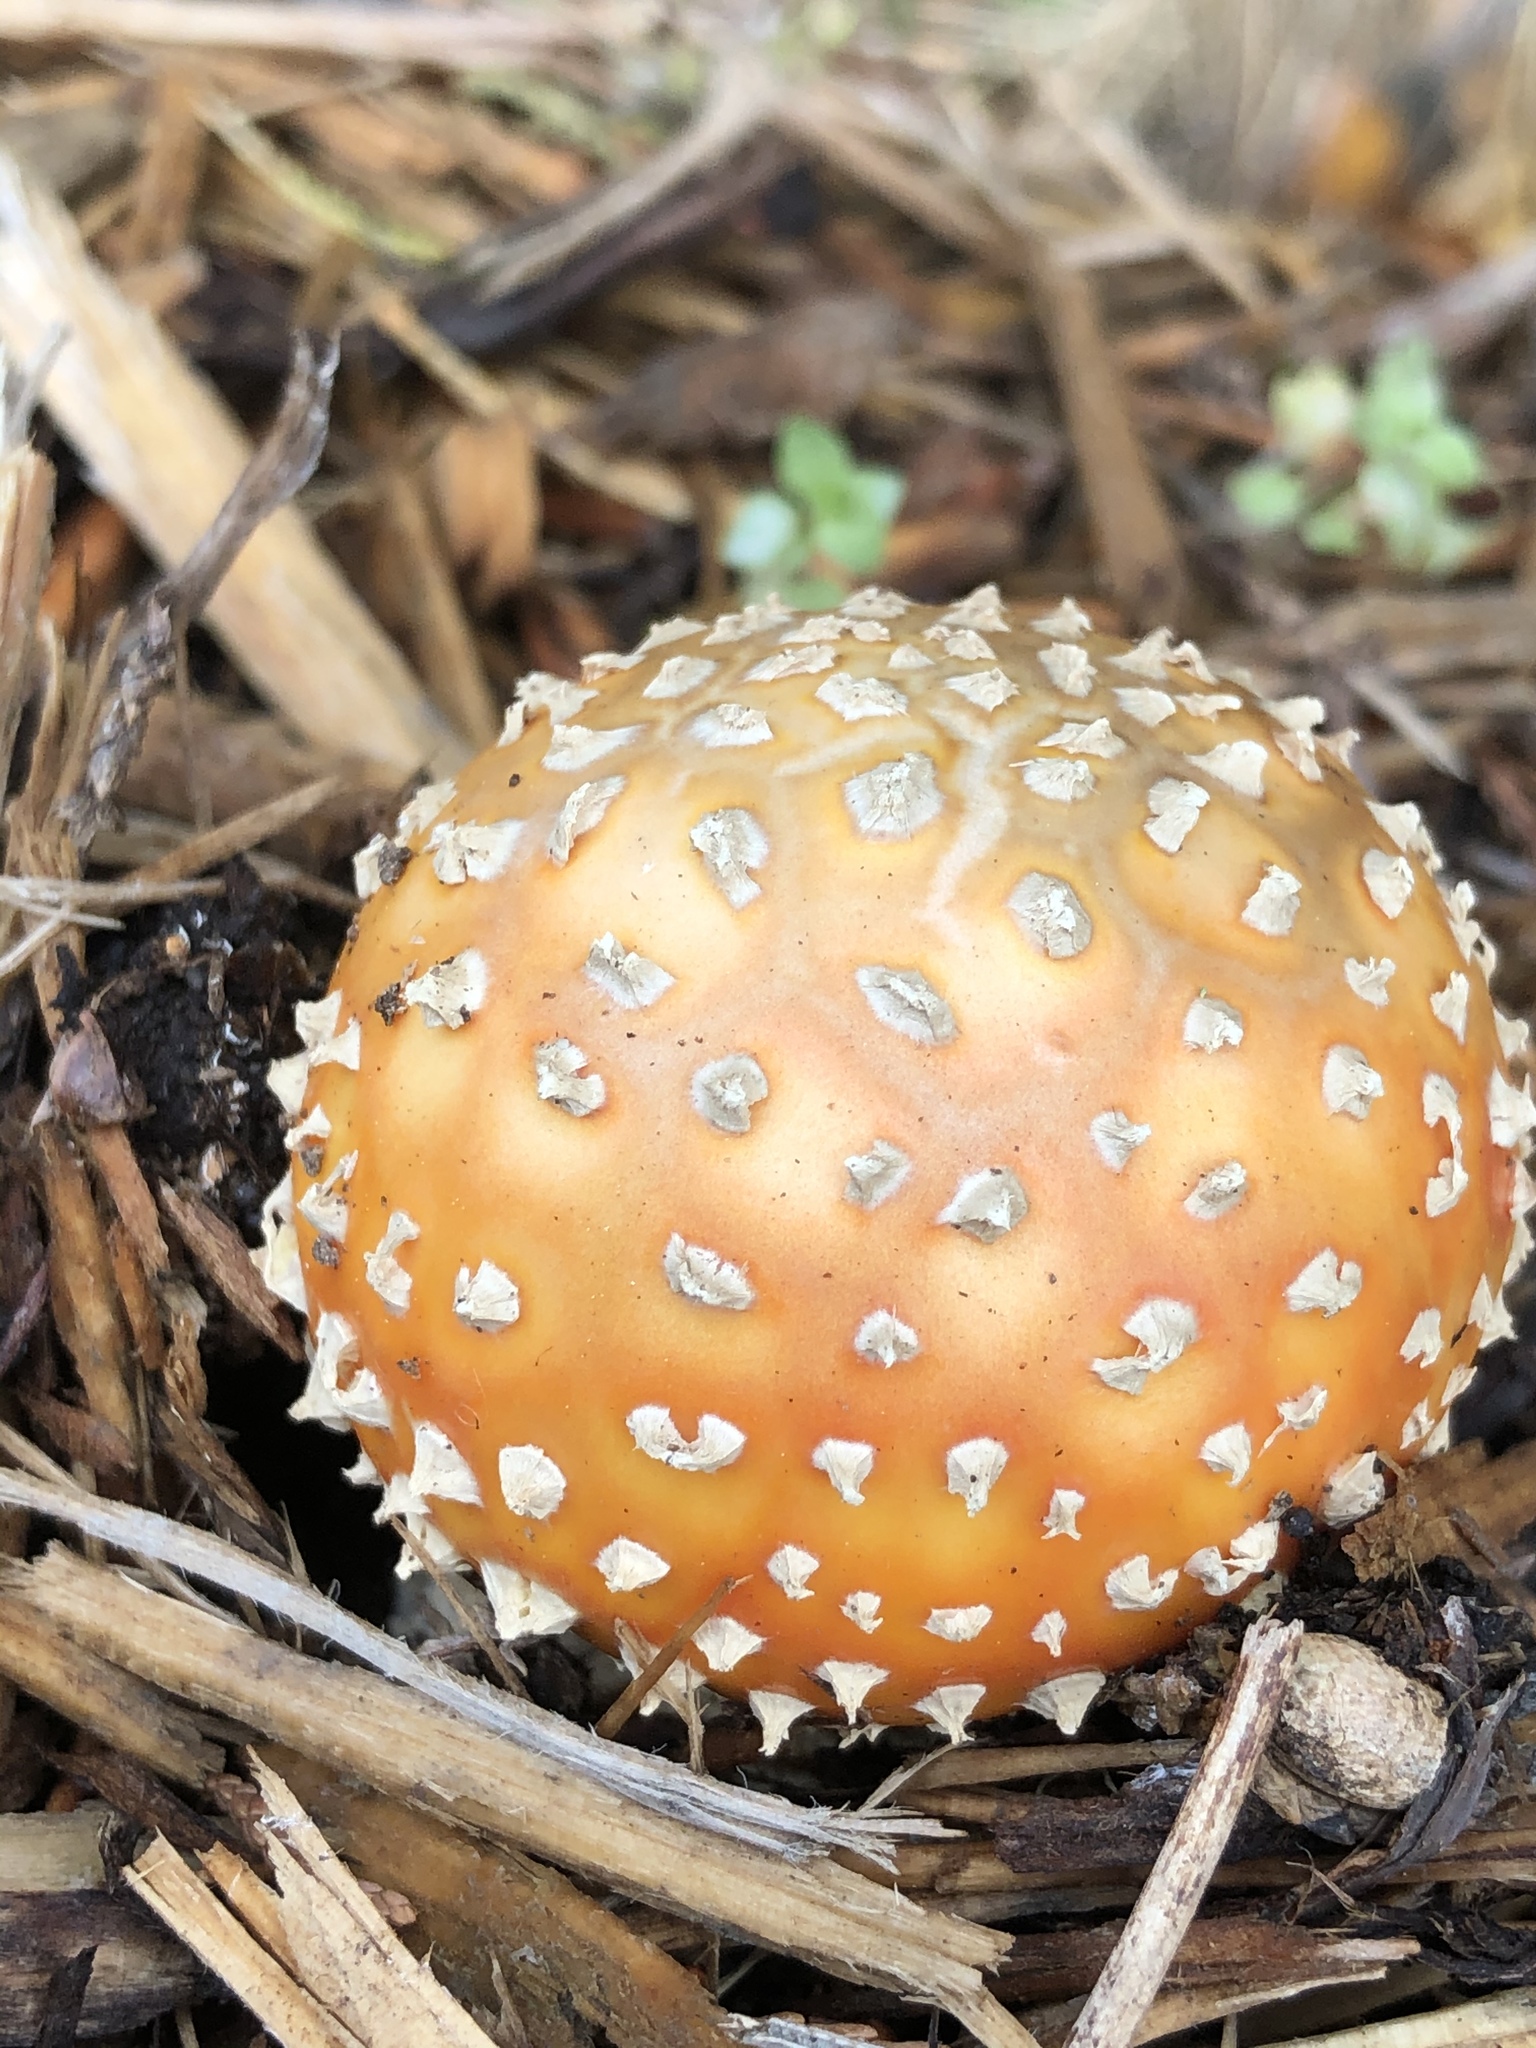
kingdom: Fungi
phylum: Basidiomycota
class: Agaricomycetes
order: Agaricales
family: Amanitaceae
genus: Amanita
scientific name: Amanita muscaria
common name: Fly agaric
